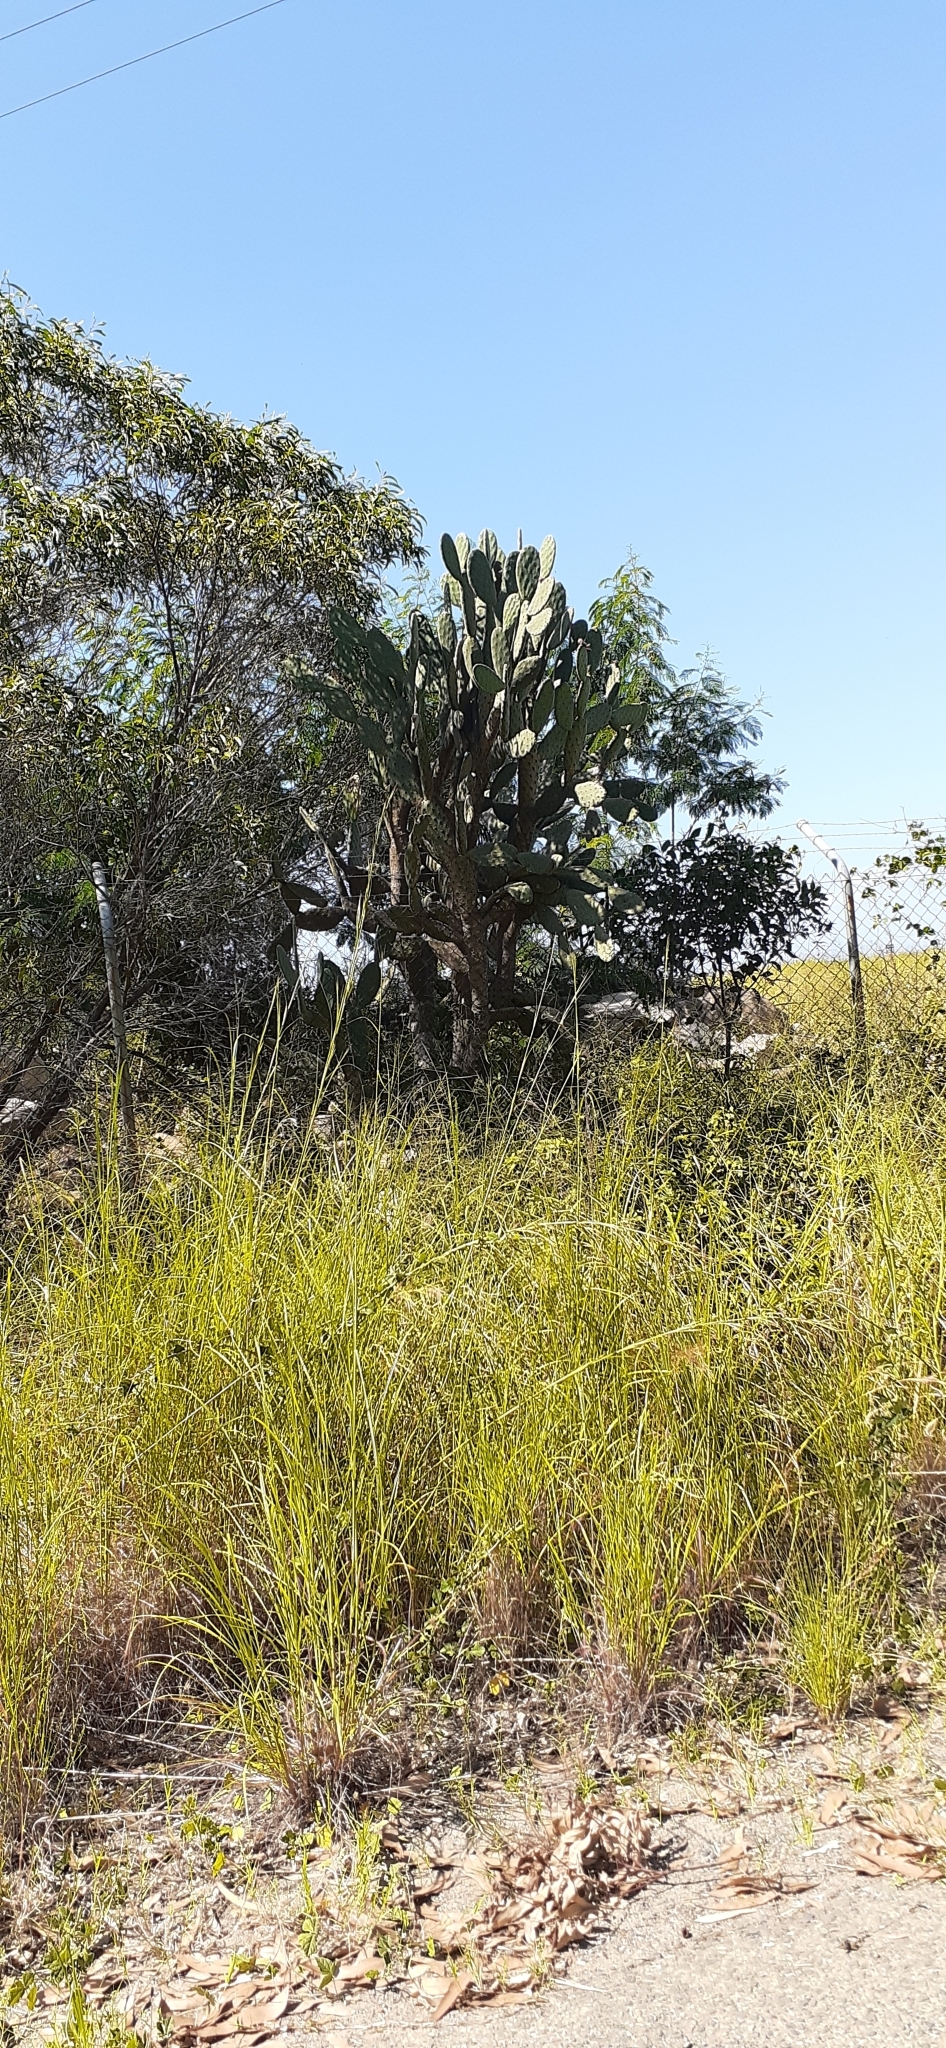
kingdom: Plantae
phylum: Tracheophyta
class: Magnoliopsida
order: Caryophyllales
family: Cactaceae
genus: Opuntia
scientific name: Opuntia tomentosa
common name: Woollyjoint pricklypear
